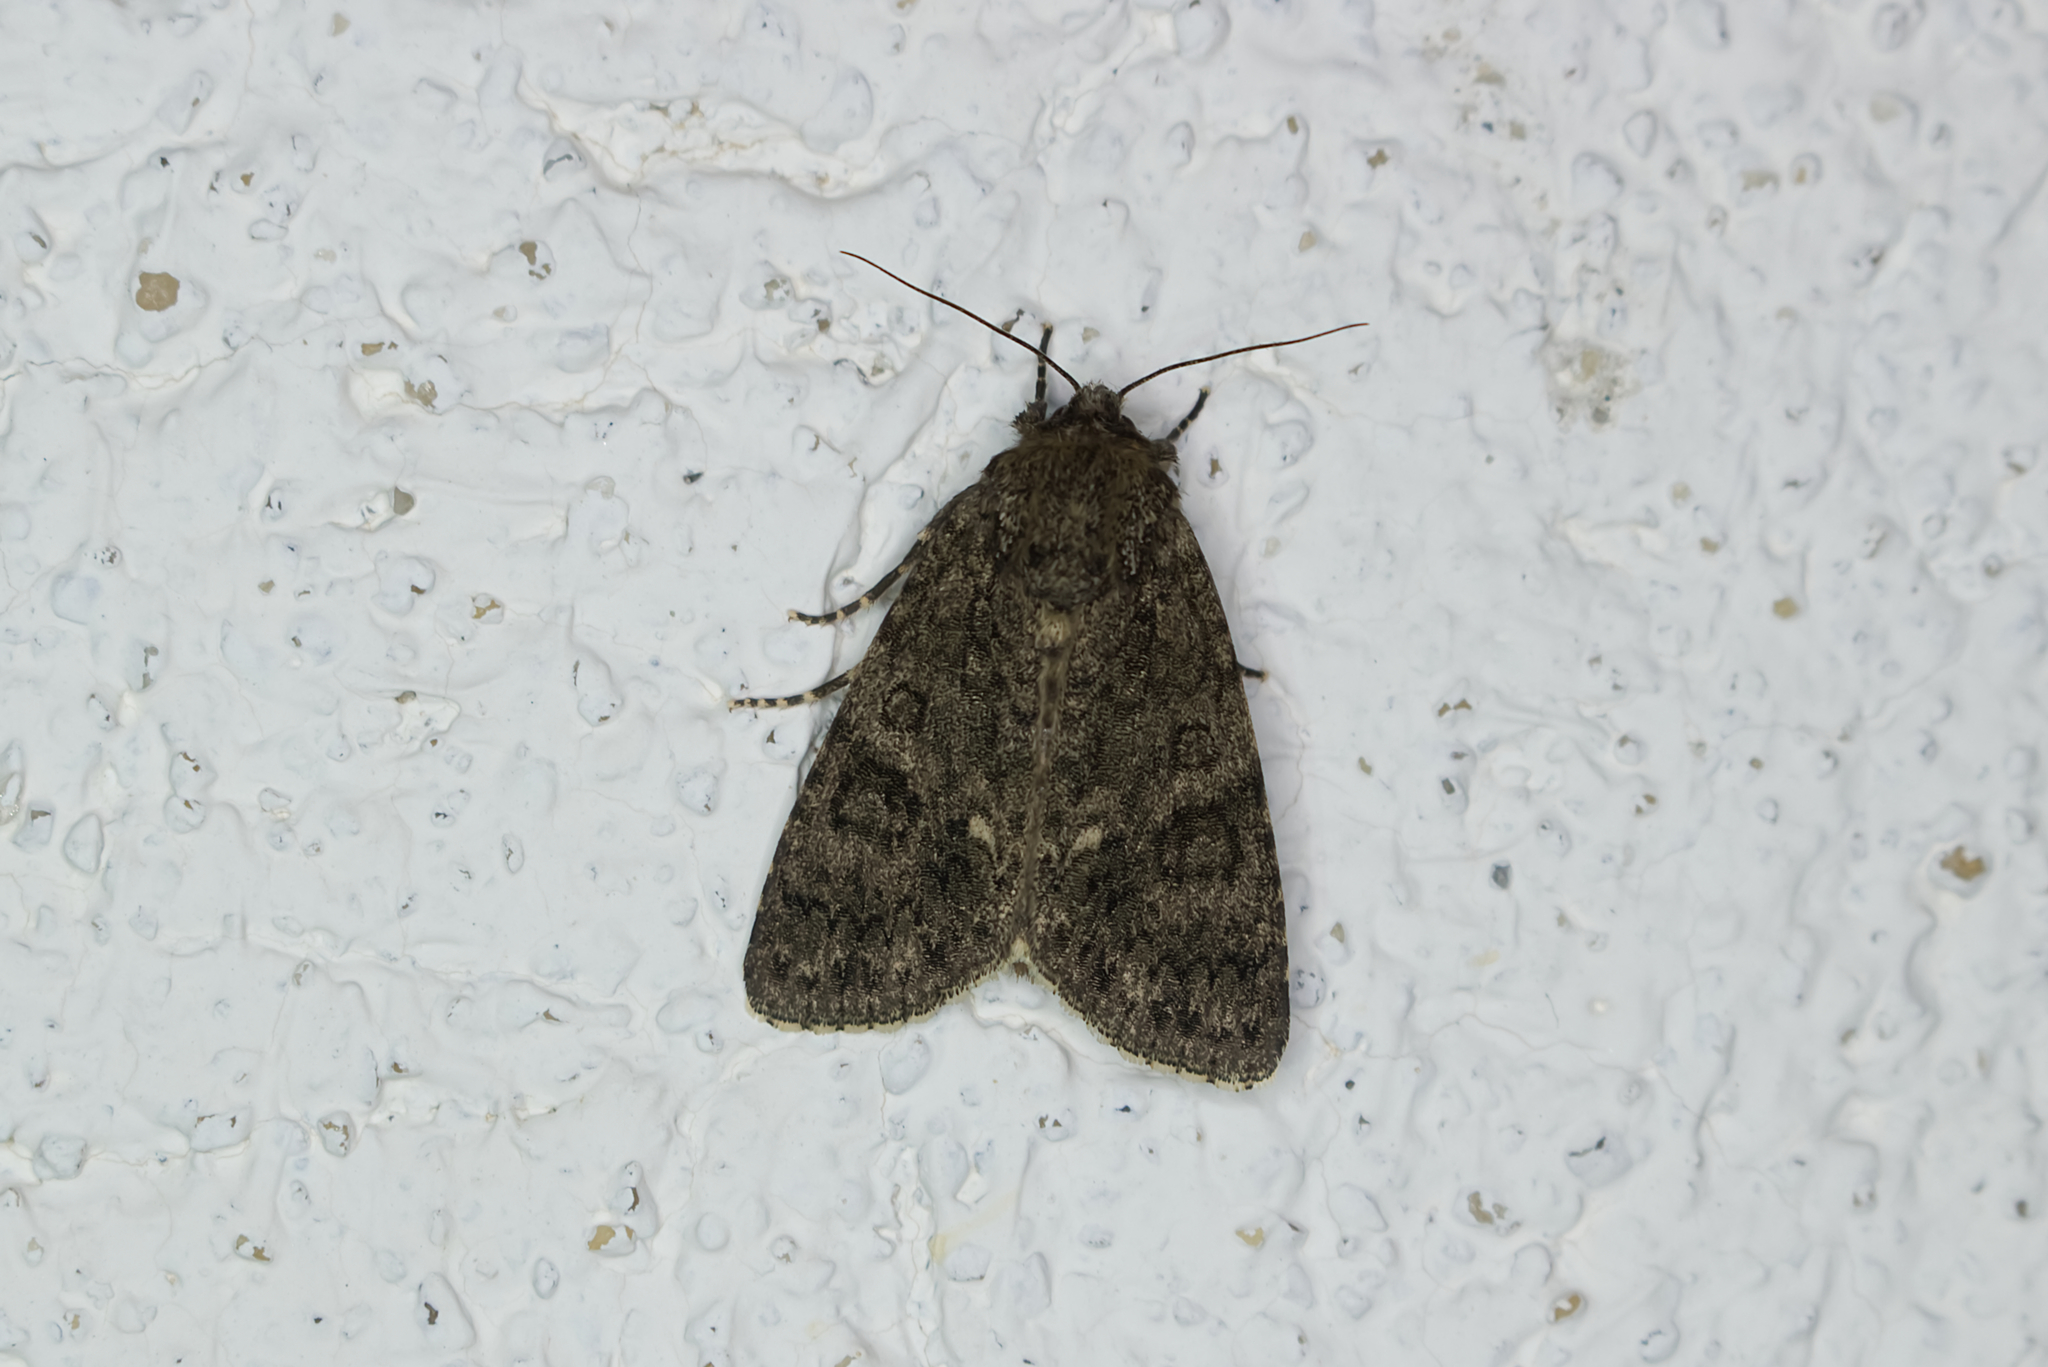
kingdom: Animalia
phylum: Arthropoda
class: Insecta
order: Lepidoptera
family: Noctuidae
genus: Acronicta
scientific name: Acronicta rumicis
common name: Knot grass
